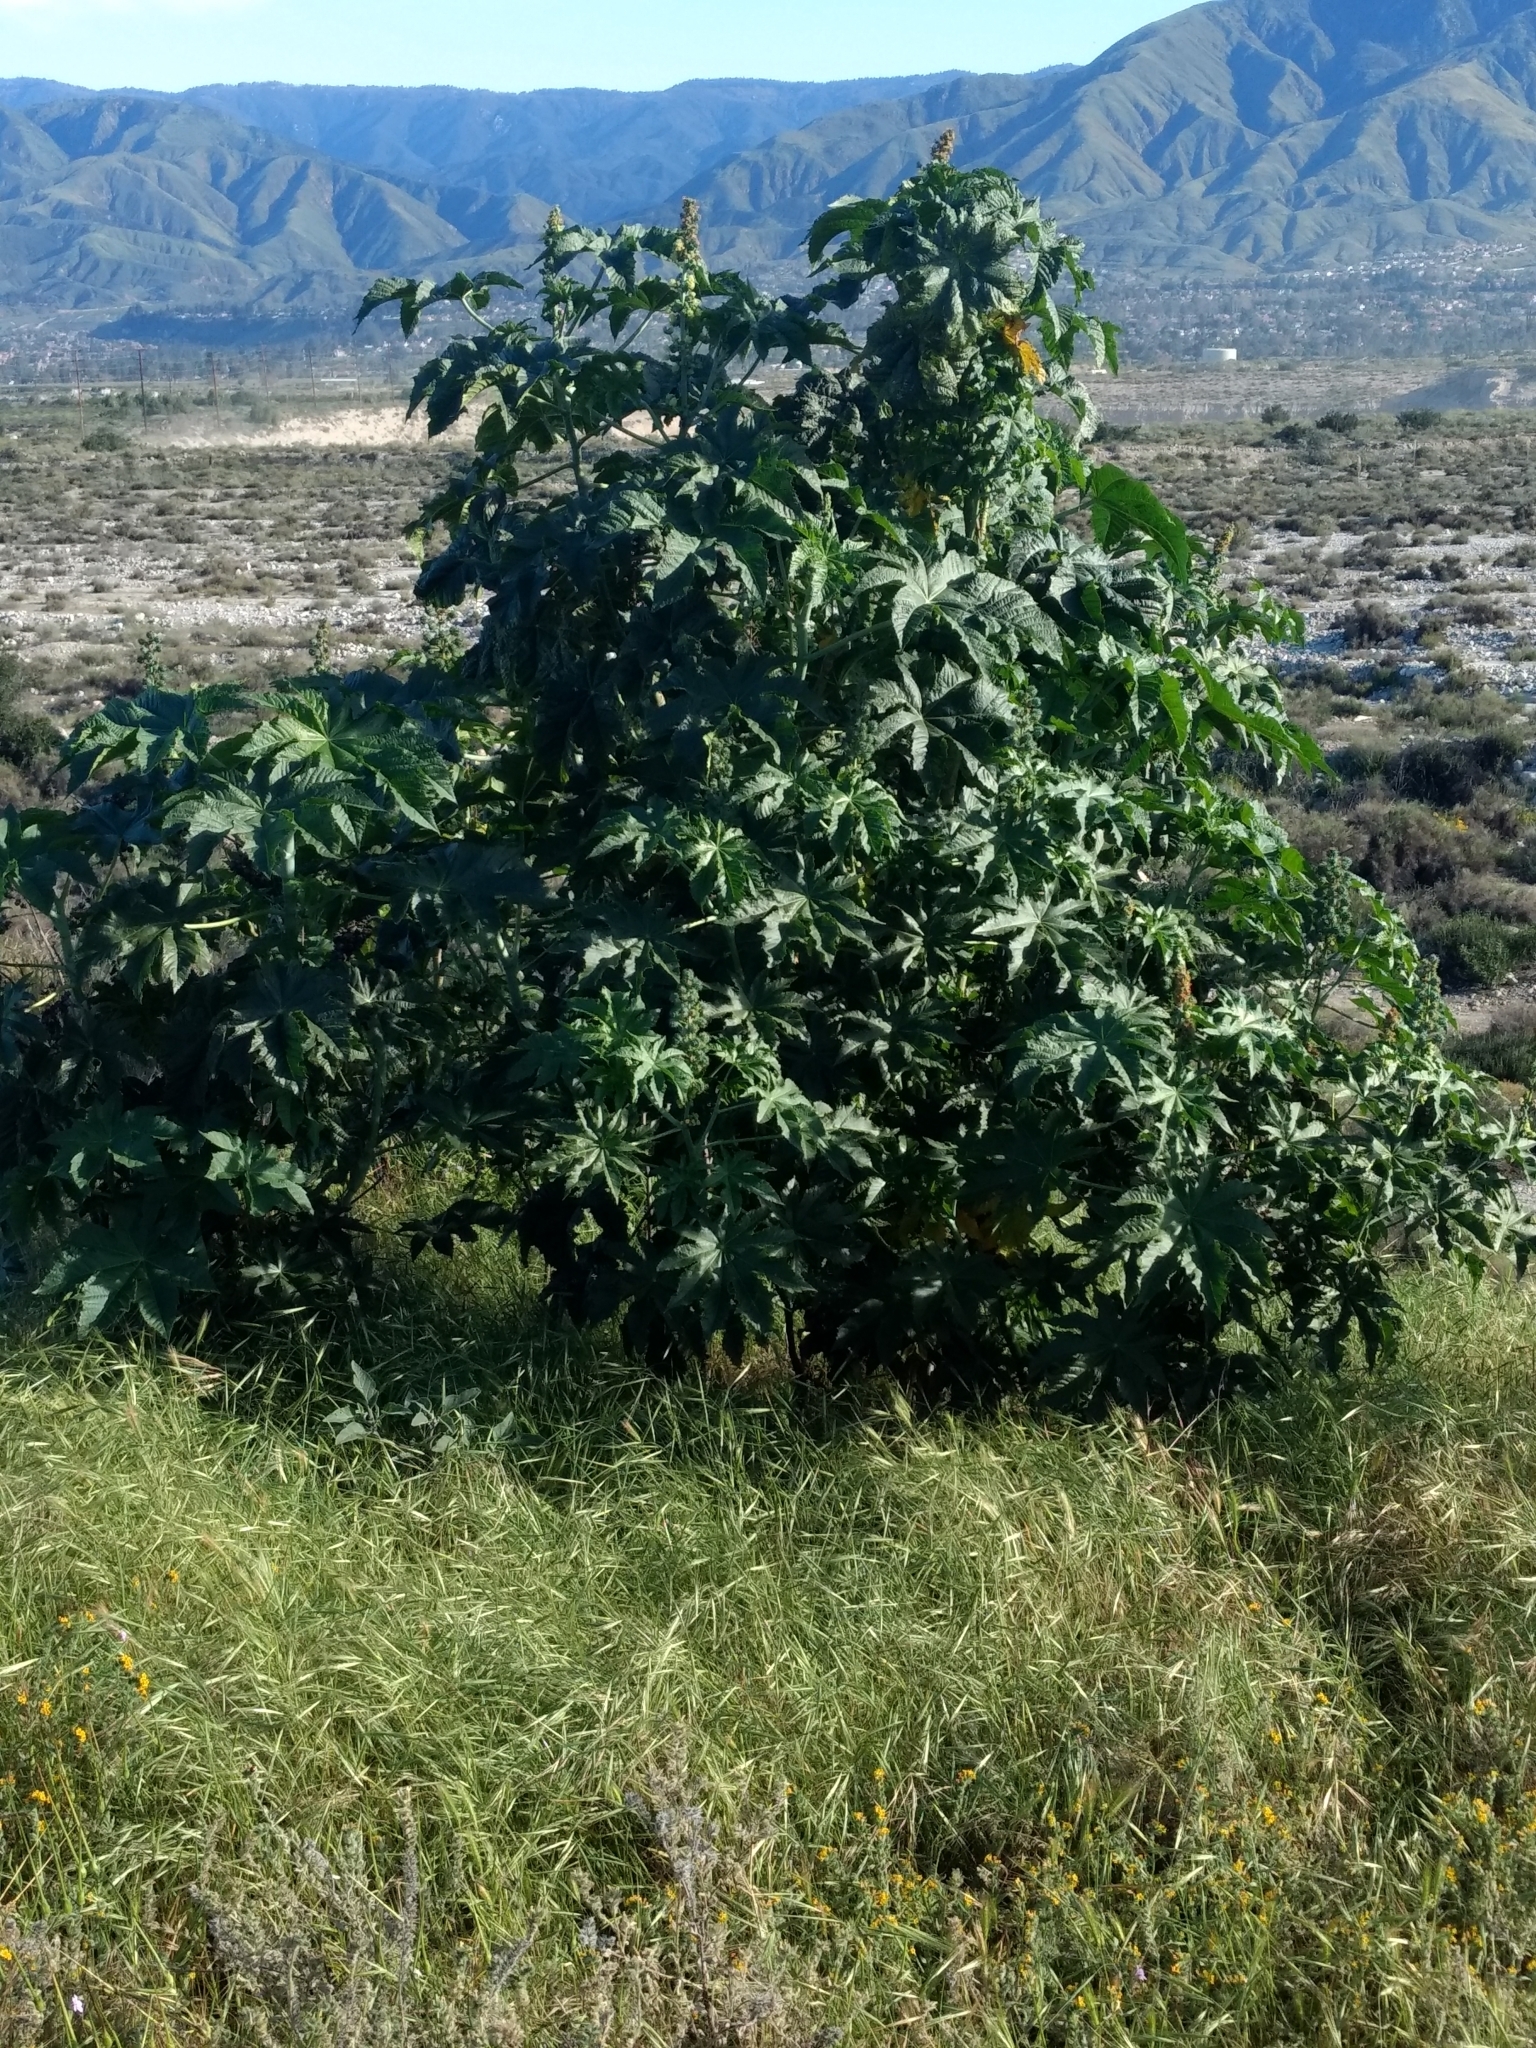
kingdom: Plantae
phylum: Tracheophyta
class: Magnoliopsida
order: Malpighiales
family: Euphorbiaceae
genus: Ricinus
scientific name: Ricinus communis
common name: Castor-oil-plant
